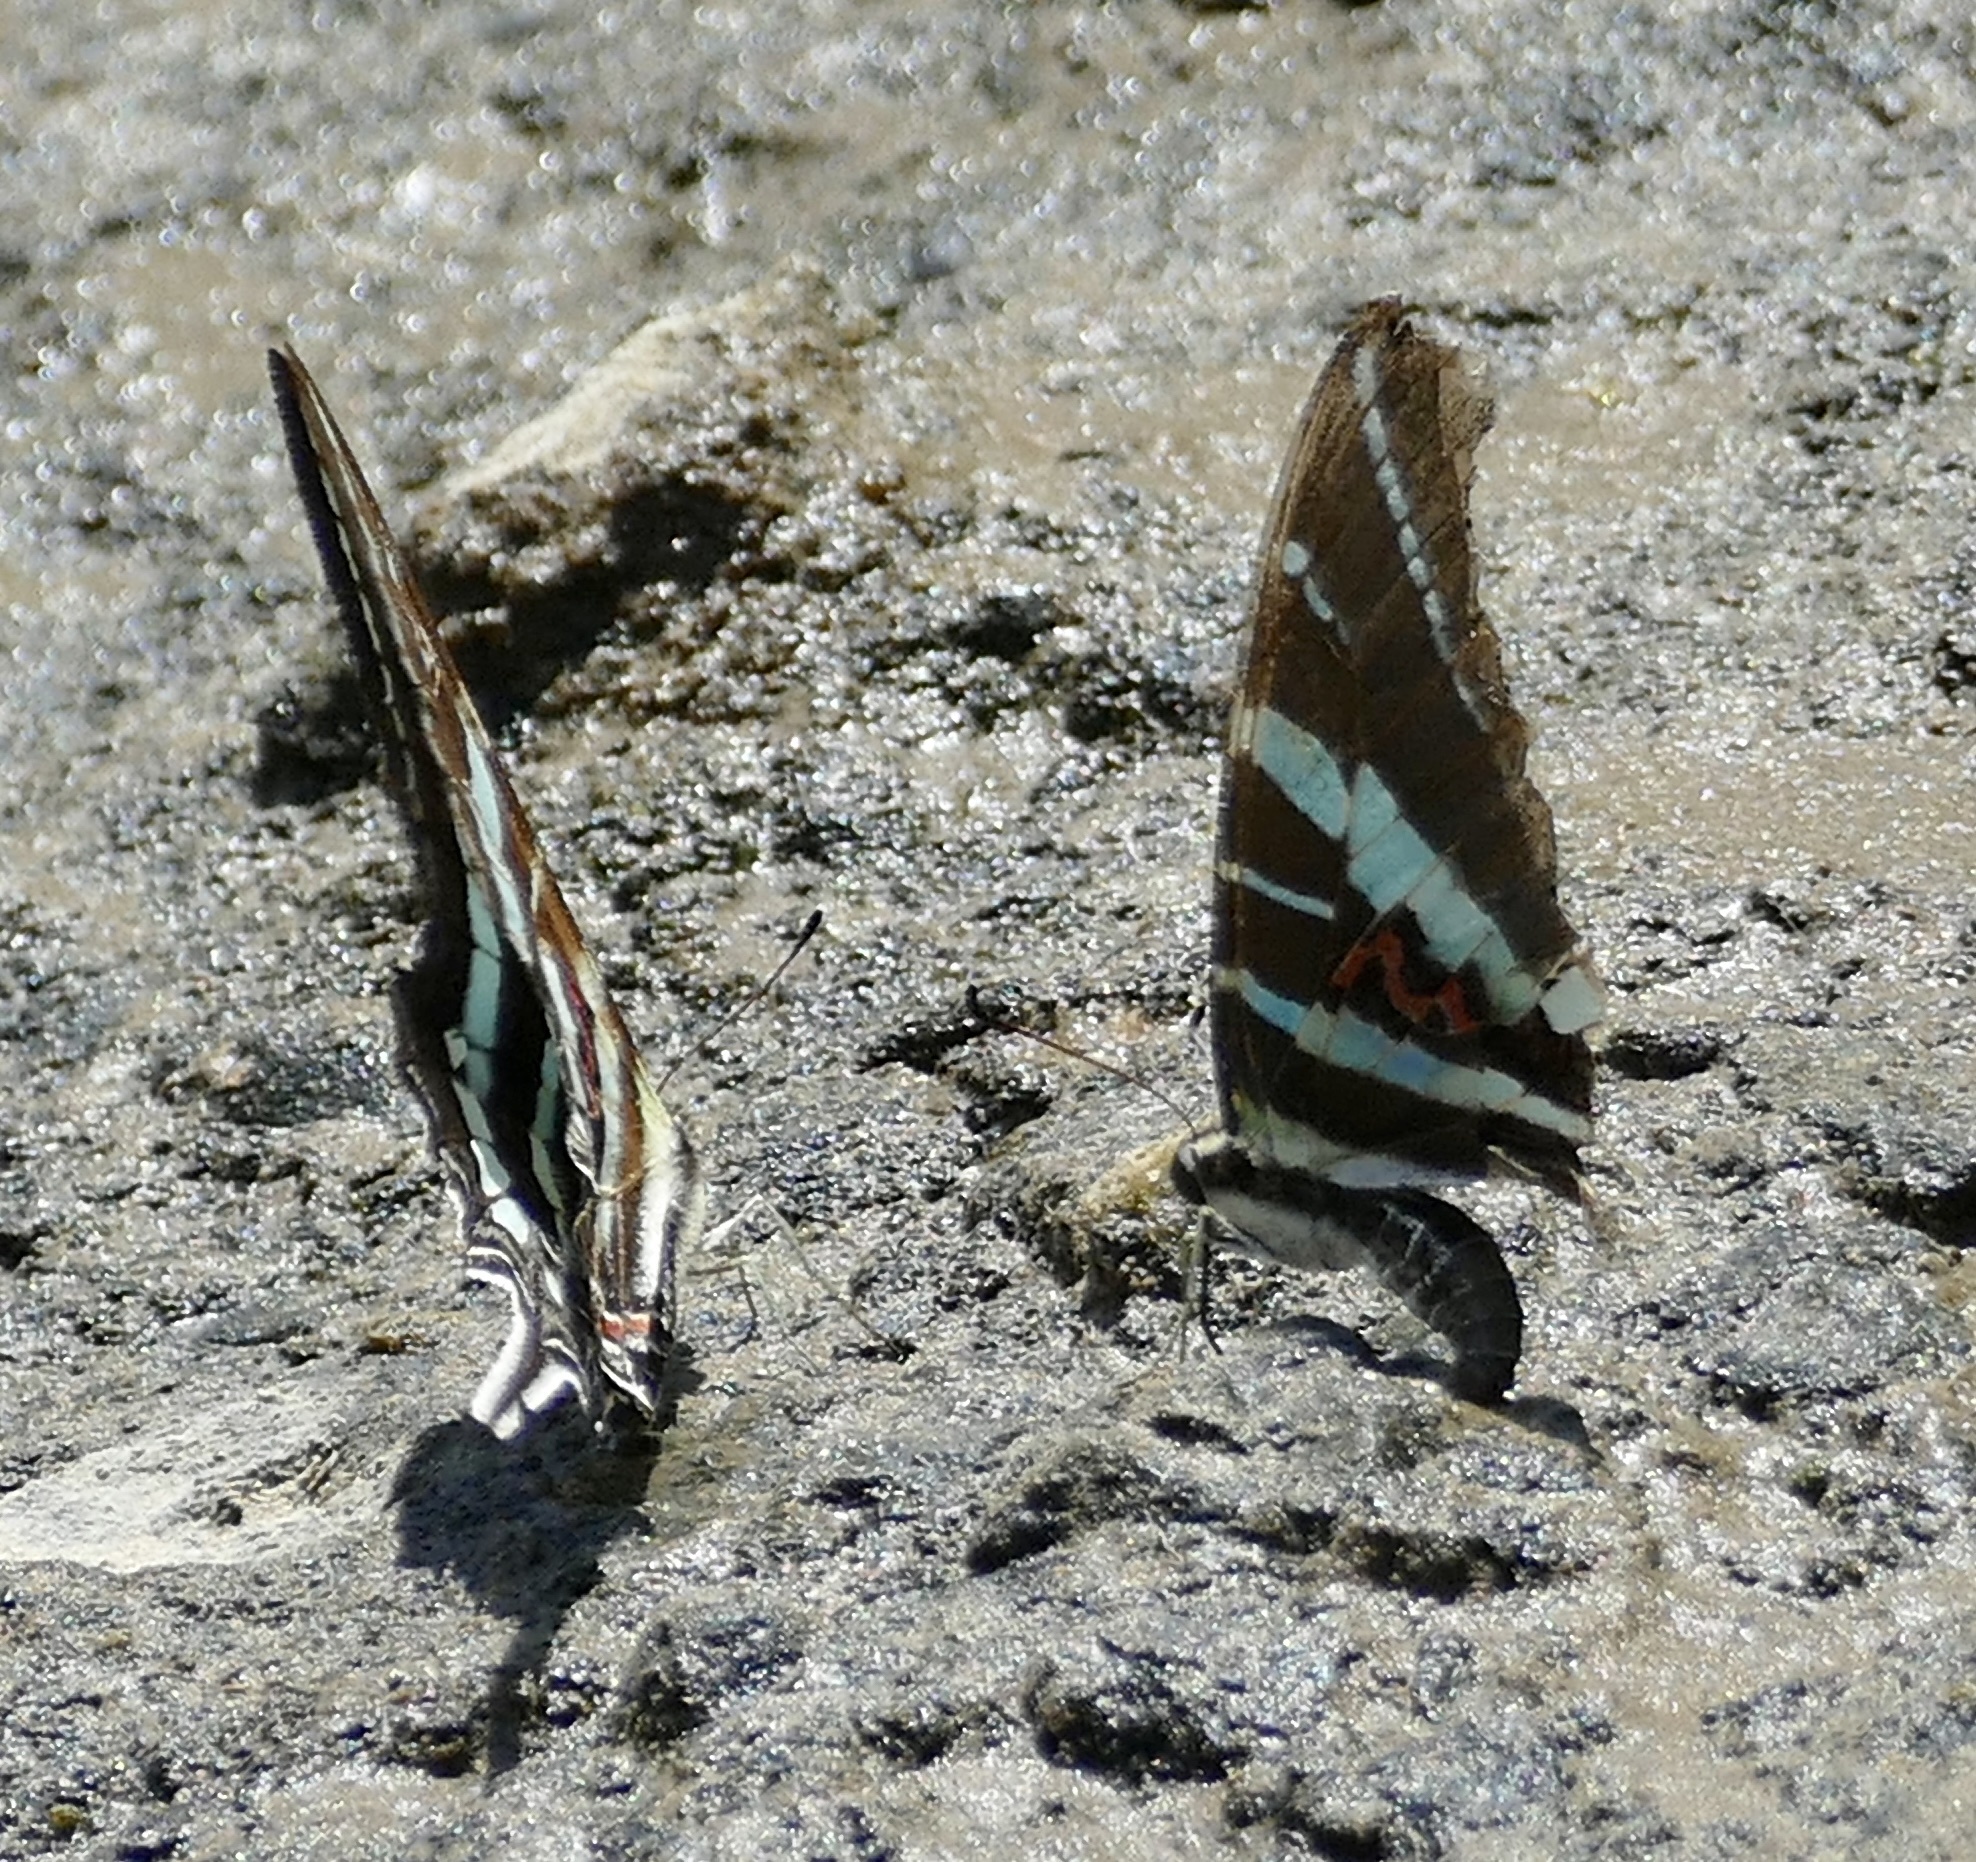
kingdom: Animalia
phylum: Arthropoda
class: Insecta
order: Lepidoptera
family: Papilionidae
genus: Graphium
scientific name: Graphium rhesus
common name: Monkey swordtail
